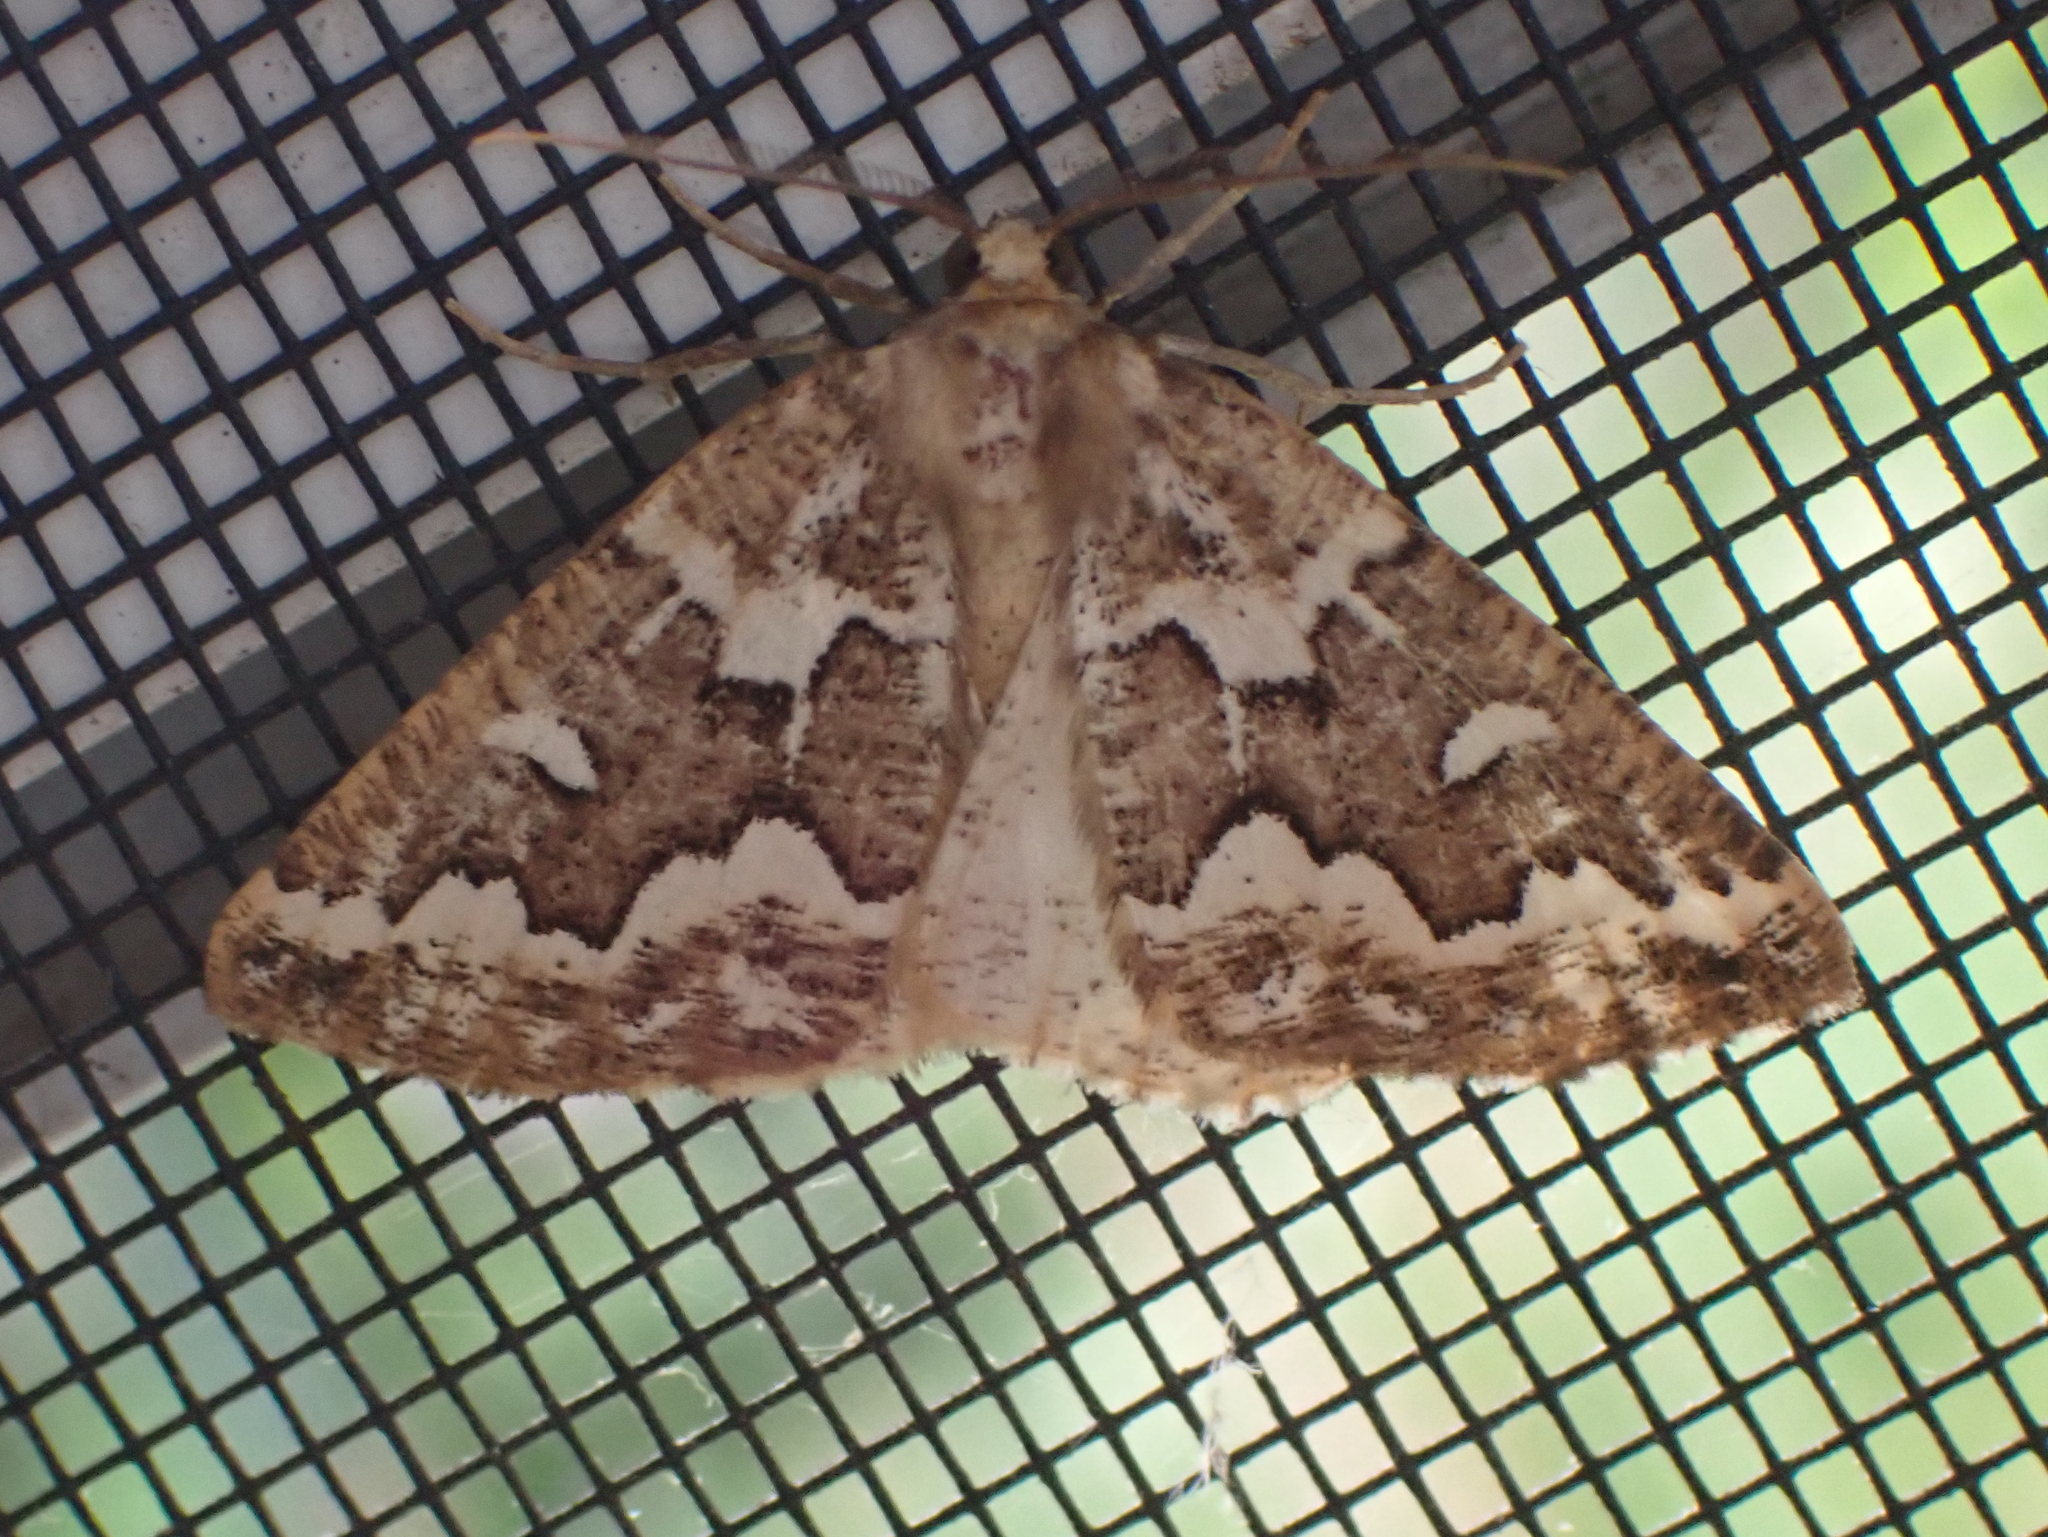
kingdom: Animalia
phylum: Arthropoda
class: Insecta
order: Lepidoptera
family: Geometridae
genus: Caripeta
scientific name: Caripeta divisata
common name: Gray spruce looper
